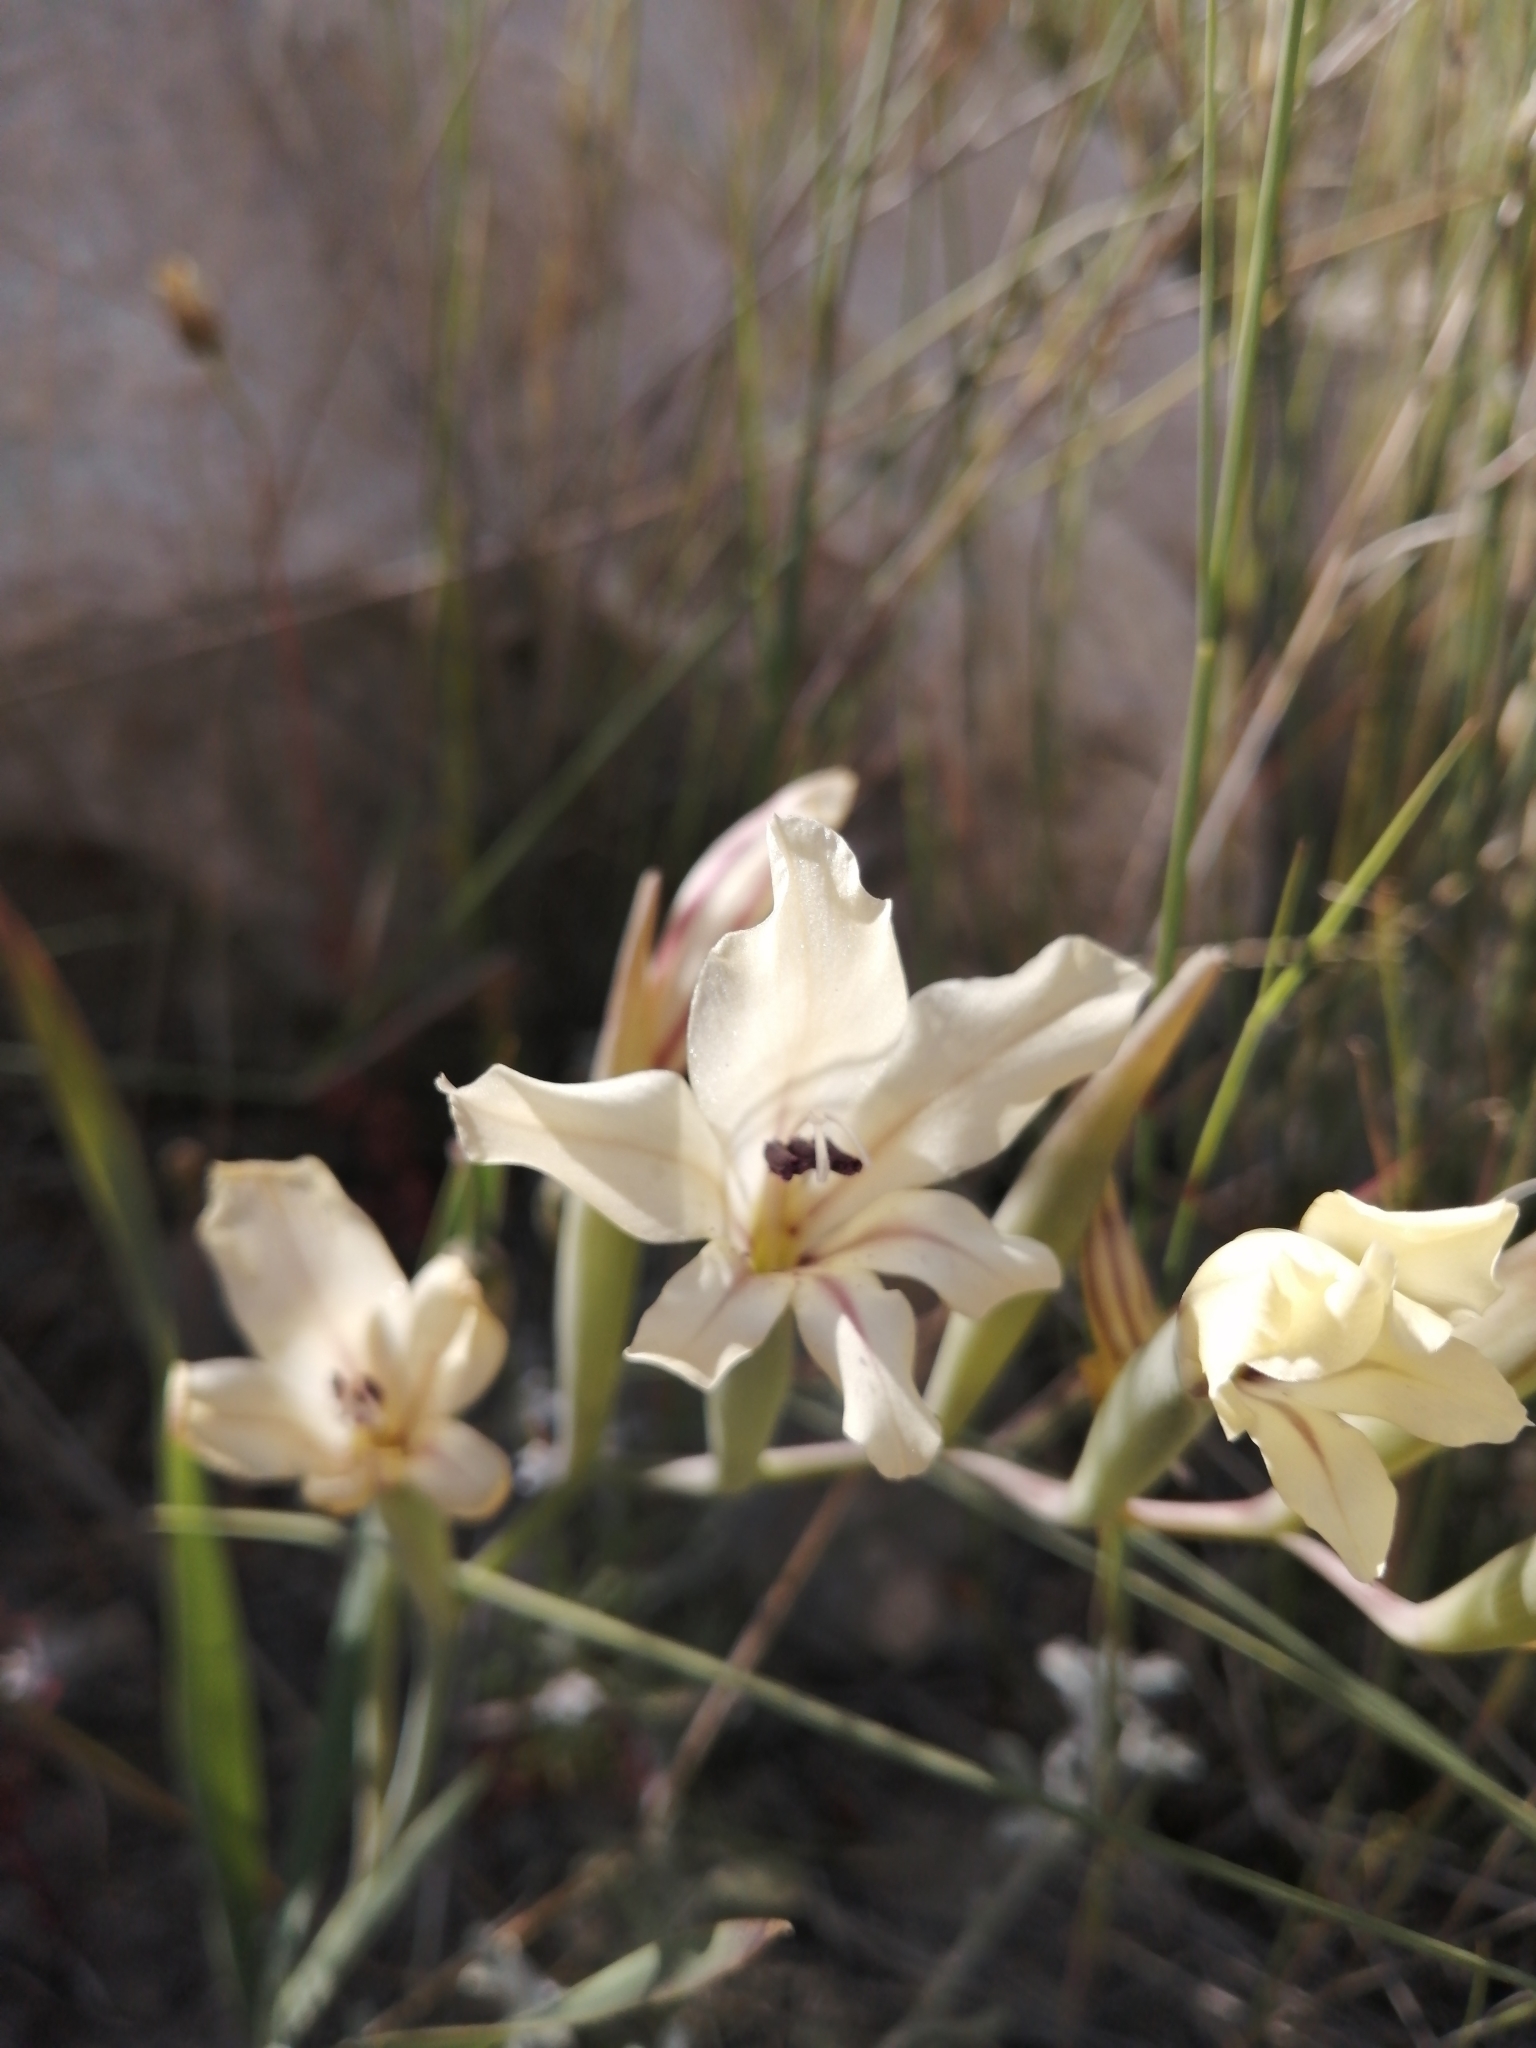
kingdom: Plantae
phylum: Tracheophyta
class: Liliopsida
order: Asparagales
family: Iridaceae
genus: Gladiolus
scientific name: Gladiolus floribundus
